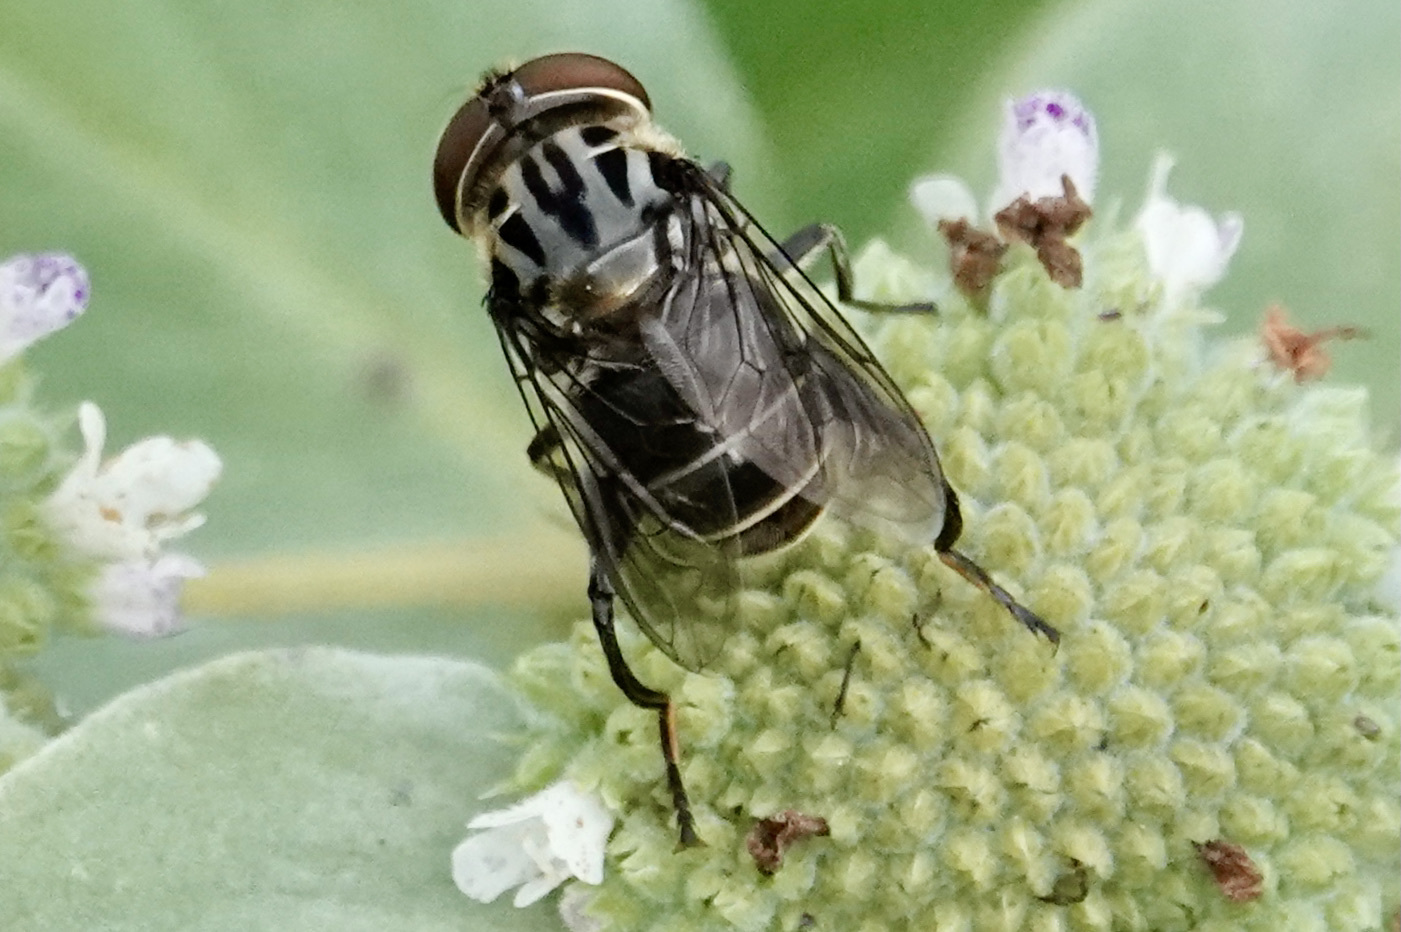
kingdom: Animalia
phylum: Arthropoda
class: Insecta
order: Diptera
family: Syrphidae
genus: Palpada
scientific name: Palpada furcata
